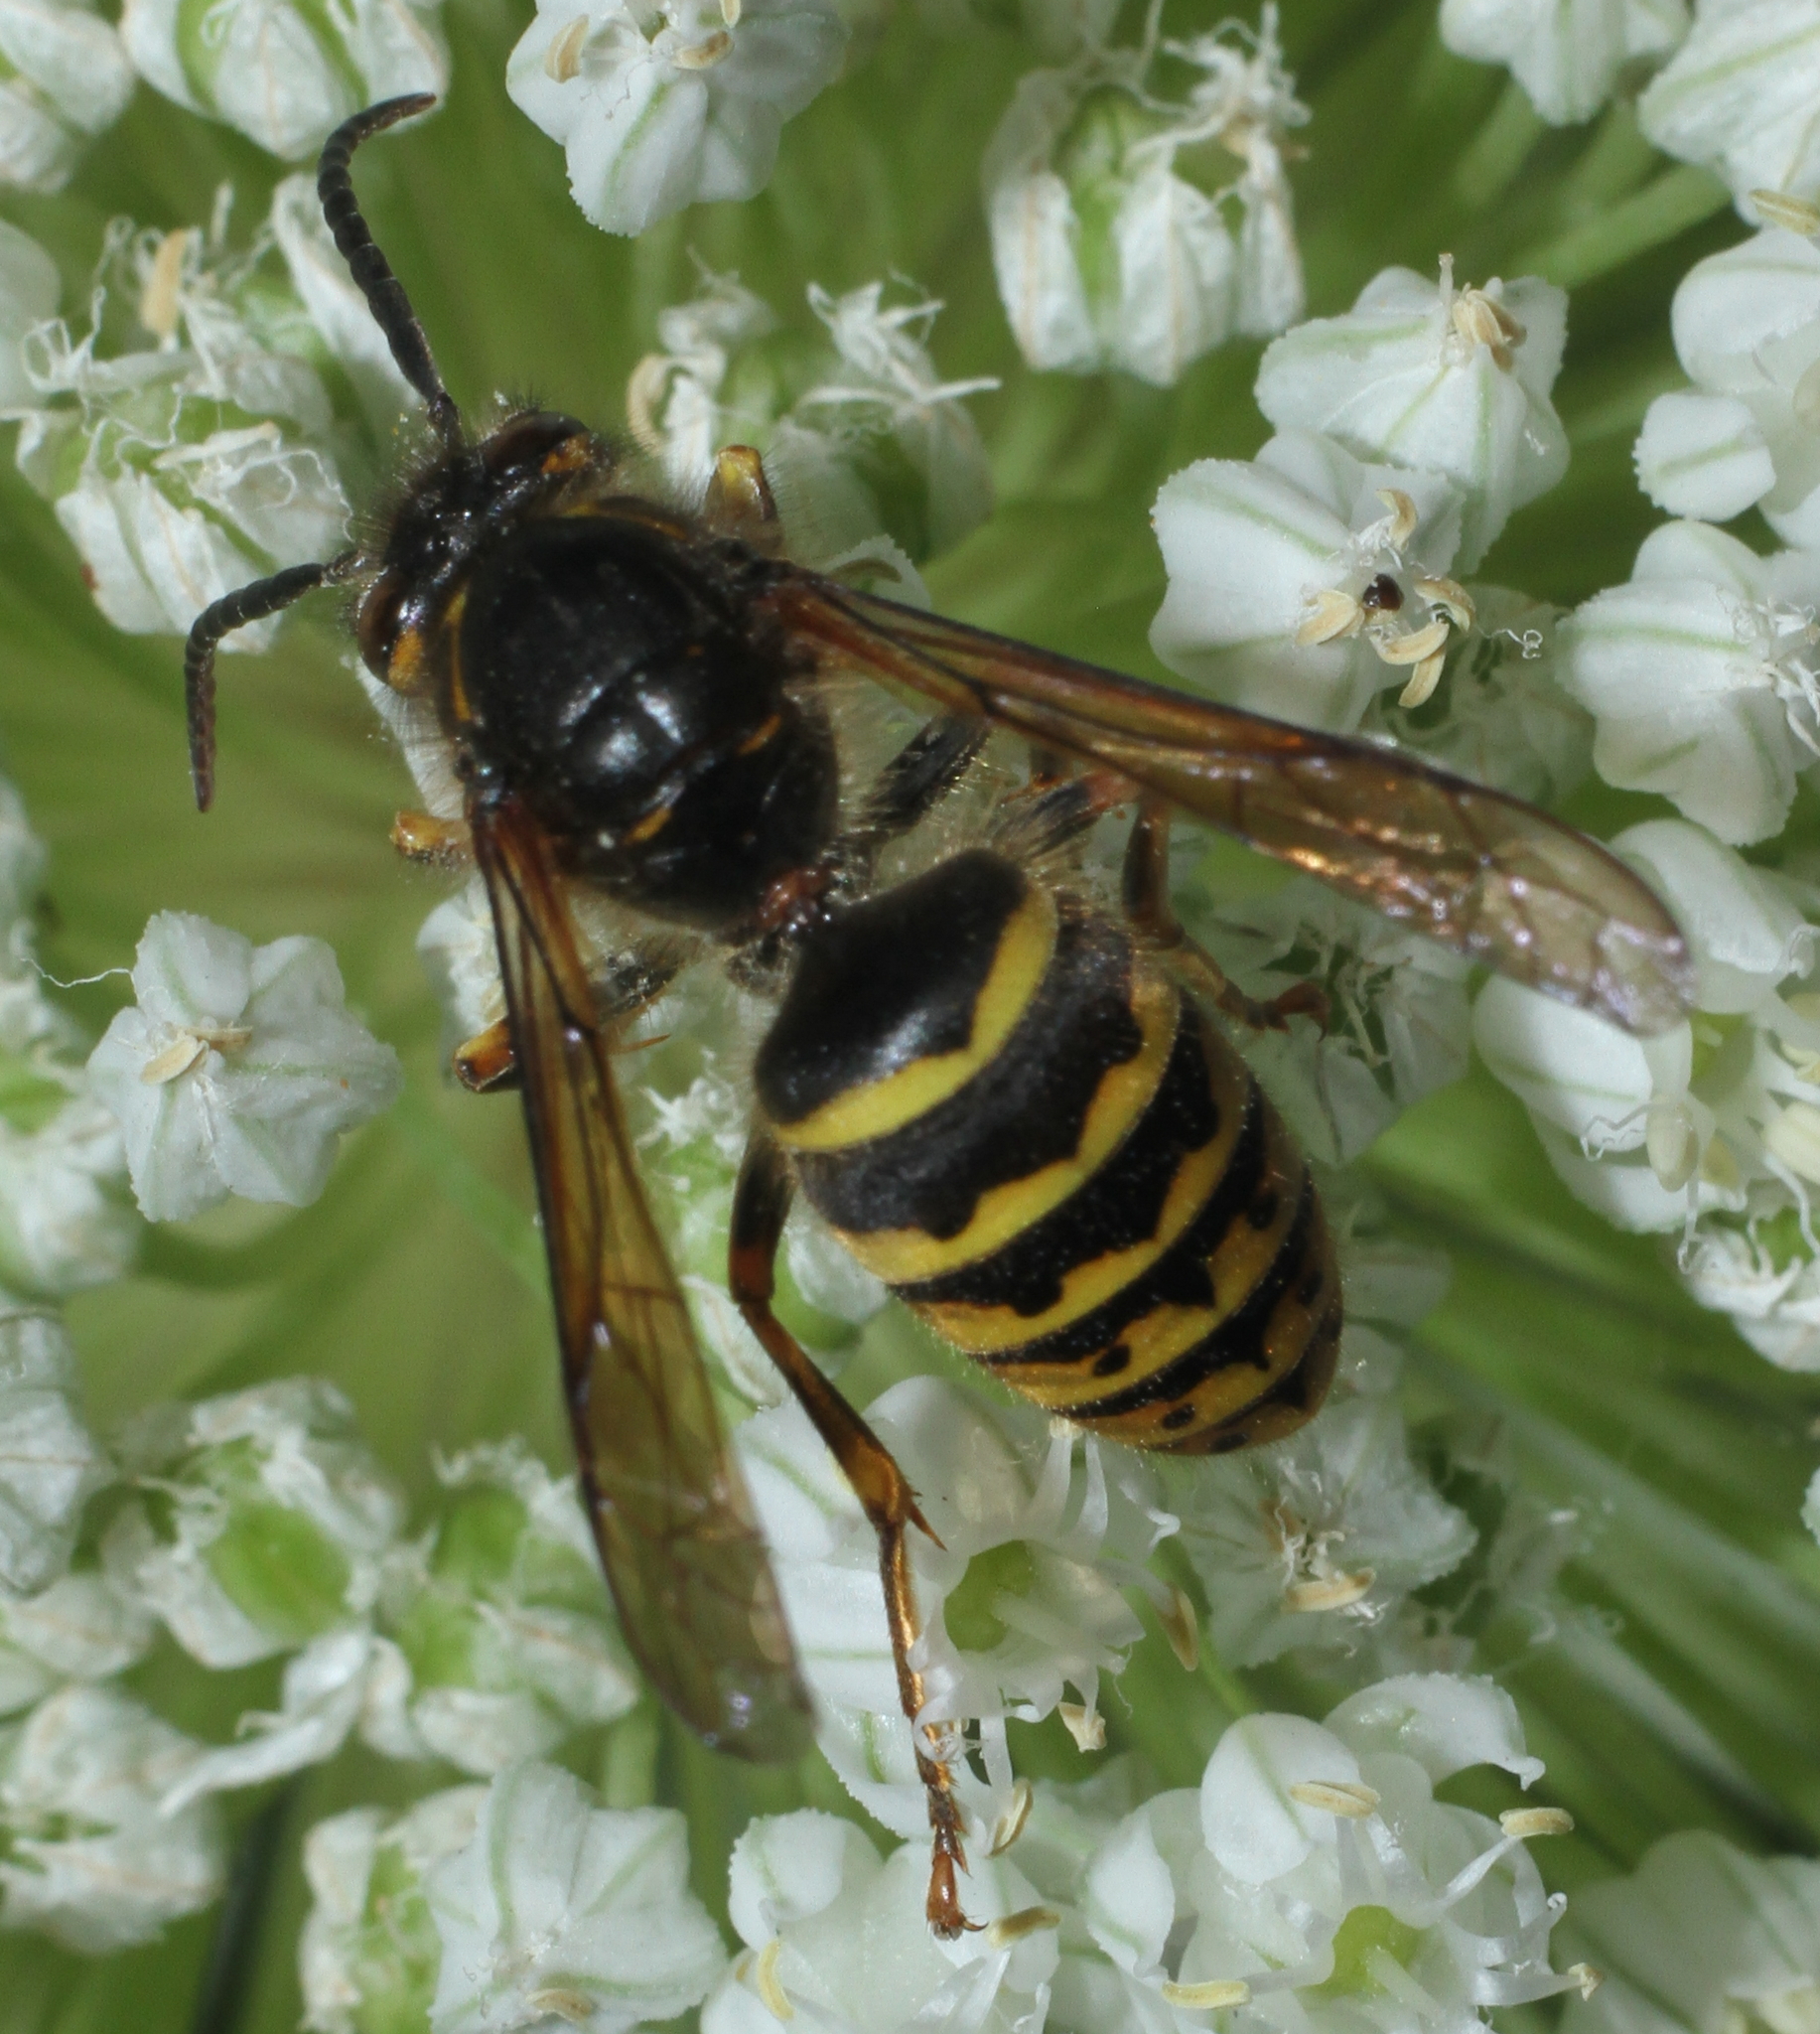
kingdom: Animalia
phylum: Arthropoda
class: Insecta
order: Hymenoptera
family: Vespidae
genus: Dolichovespula
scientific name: Dolichovespula media
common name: Median wasp
